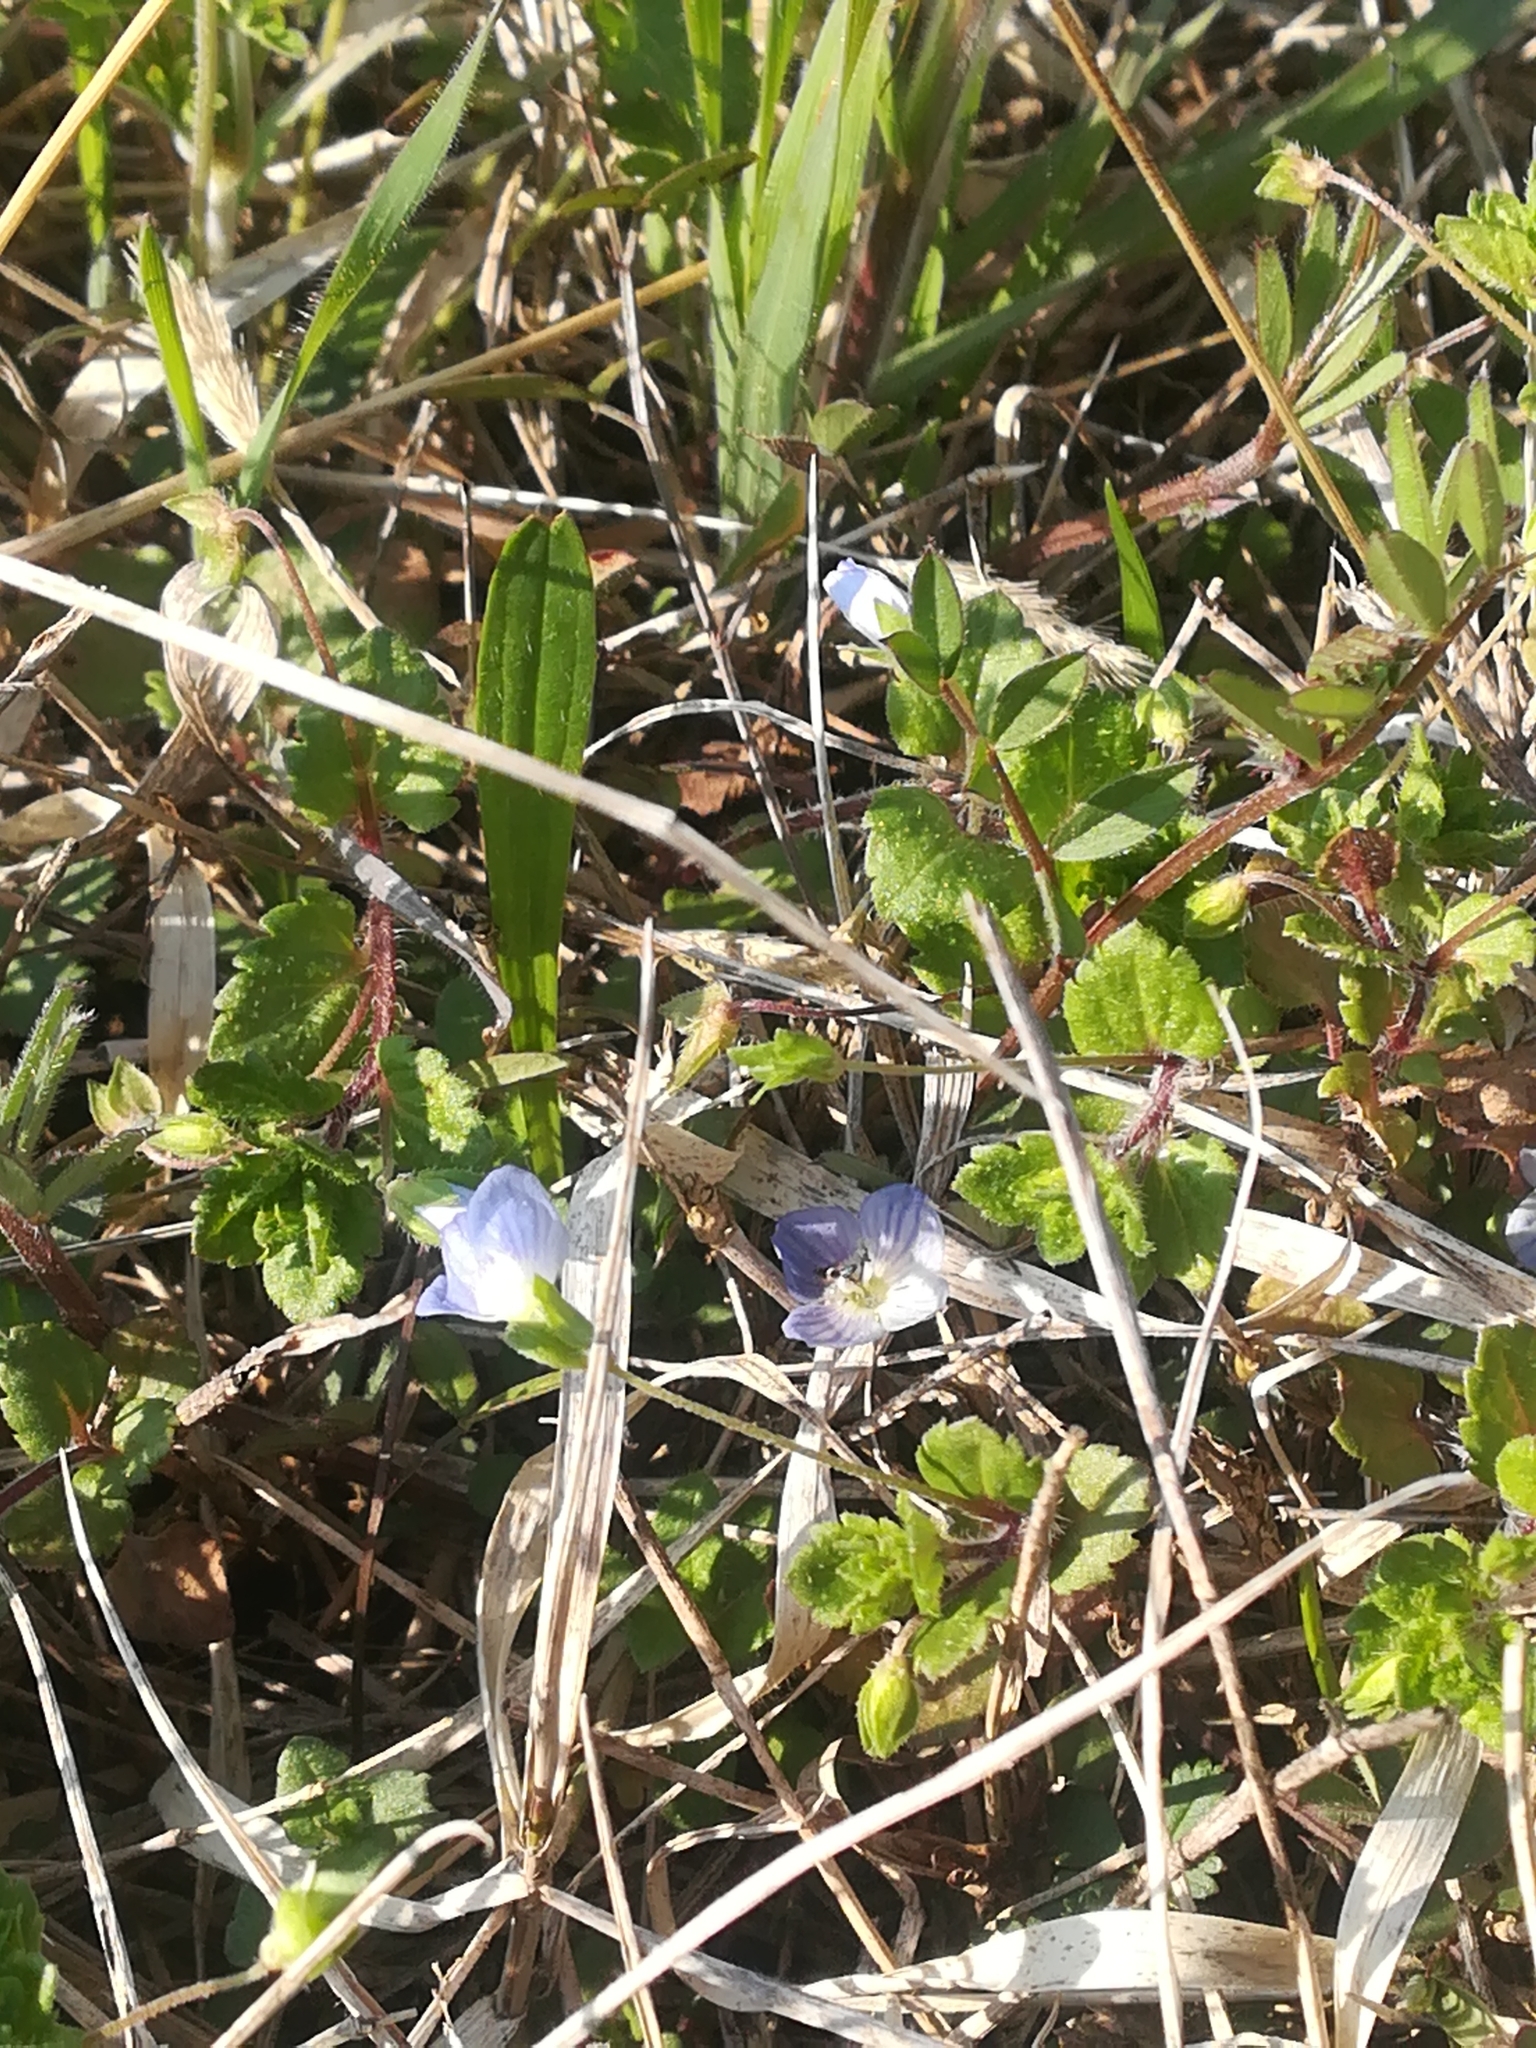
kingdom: Plantae
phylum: Tracheophyta
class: Magnoliopsida
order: Lamiales
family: Plantaginaceae
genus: Veronica
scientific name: Veronica persica
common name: Common field-speedwell
